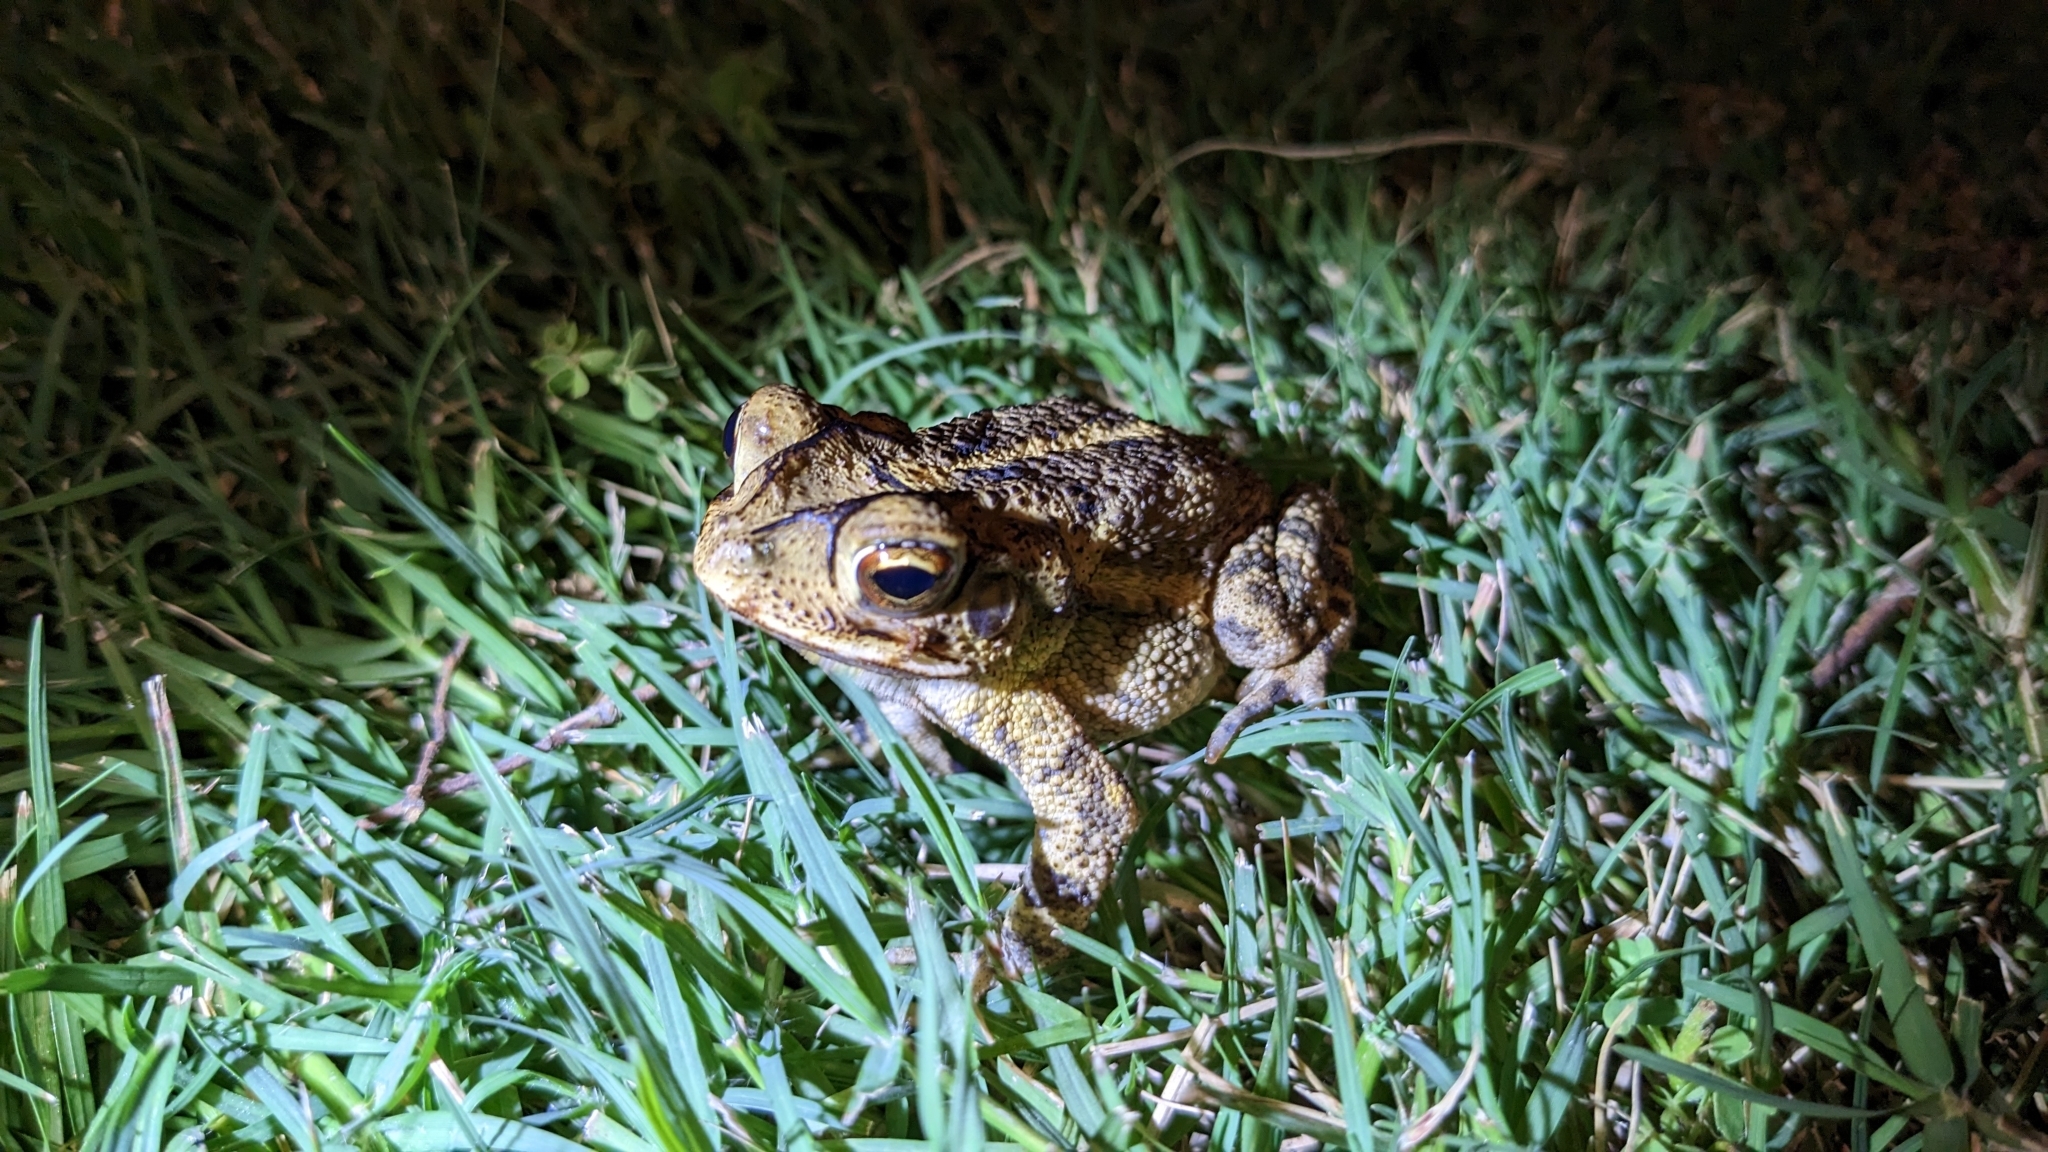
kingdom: Animalia
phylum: Chordata
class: Amphibia
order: Anura
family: Bufonidae
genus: Incilius
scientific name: Incilius nebulifer
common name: Gulf coast toad
